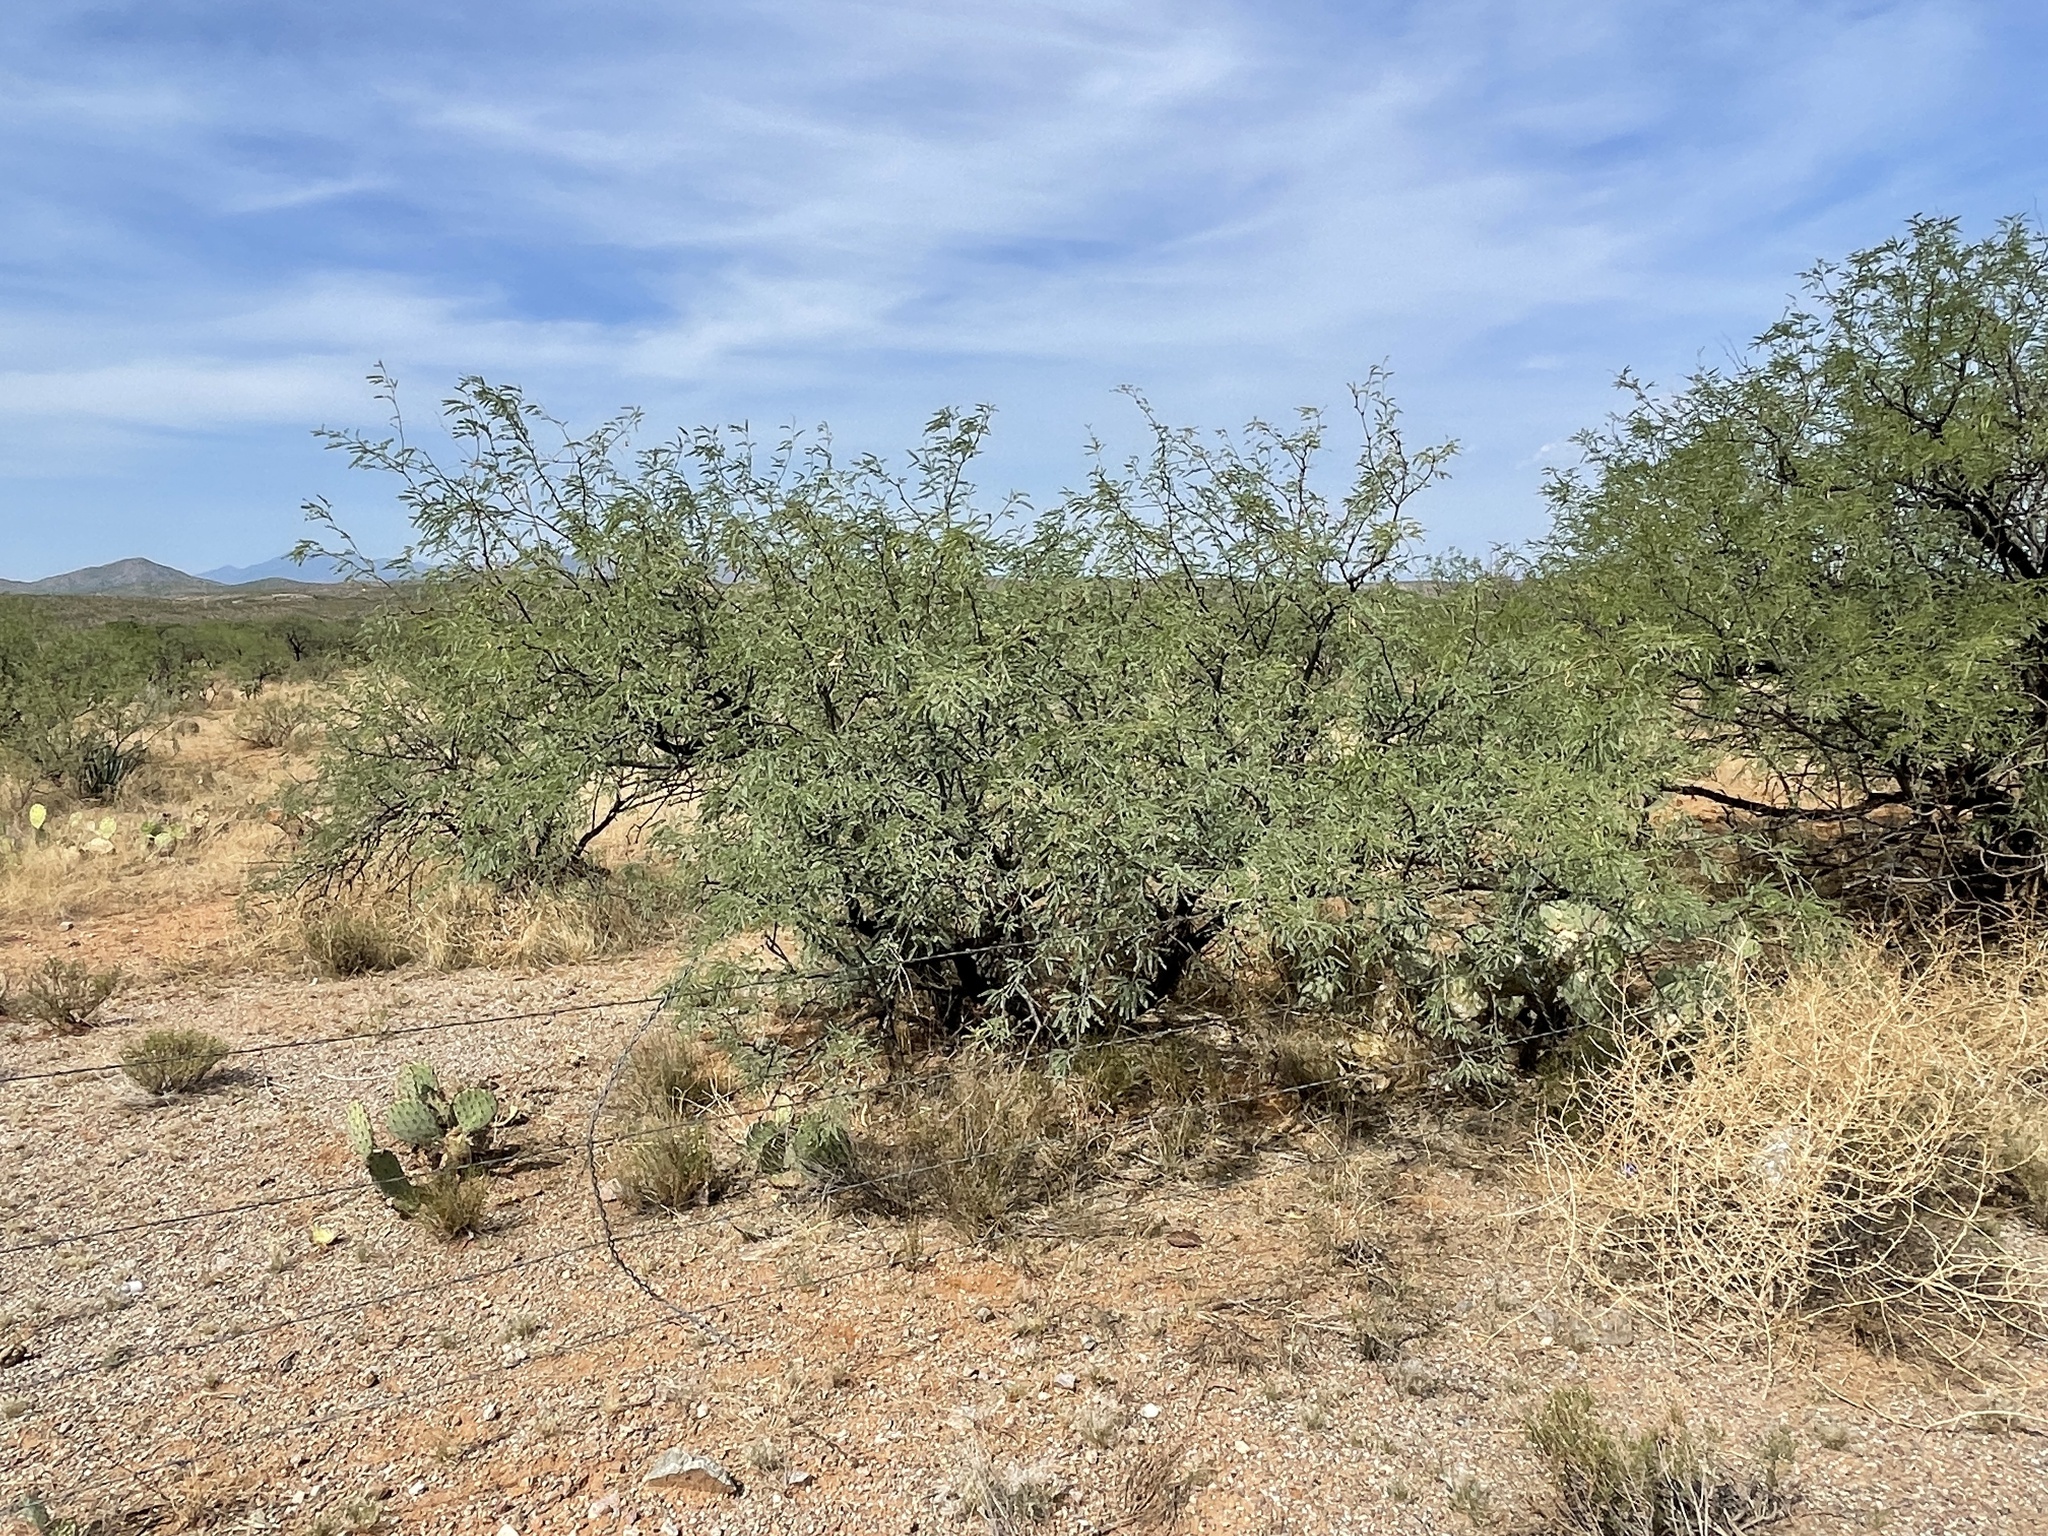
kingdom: Plantae
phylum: Tracheophyta
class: Magnoliopsida
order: Fabales
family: Fabaceae
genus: Prosopis
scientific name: Prosopis velutina
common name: Velvet mesquite
